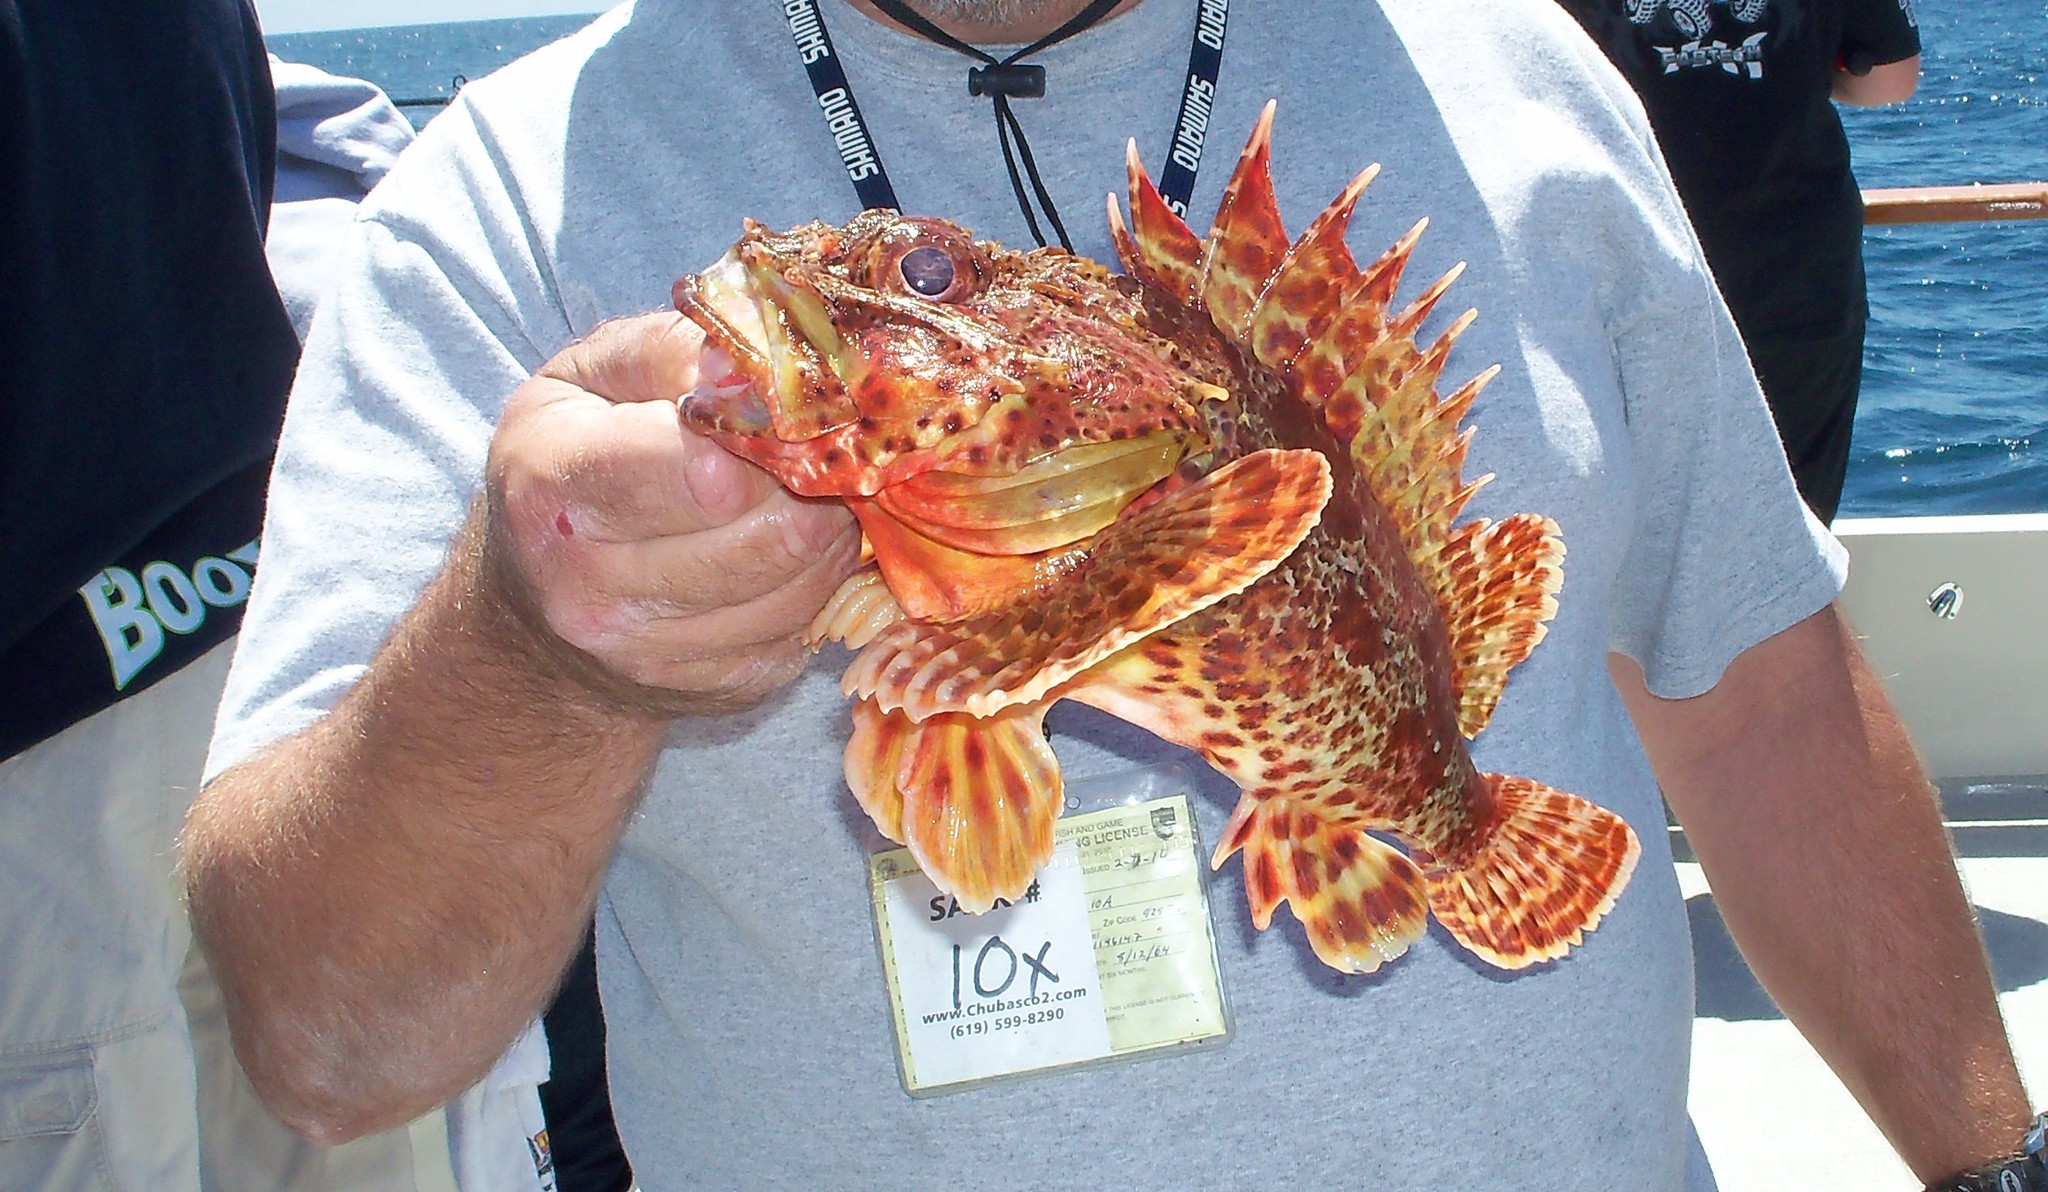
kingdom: Animalia
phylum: Chordata
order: Scorpaeniformes
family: Scorpaenidae
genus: Scorpaena
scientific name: Scorpaena guttata
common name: California scorpionfish
